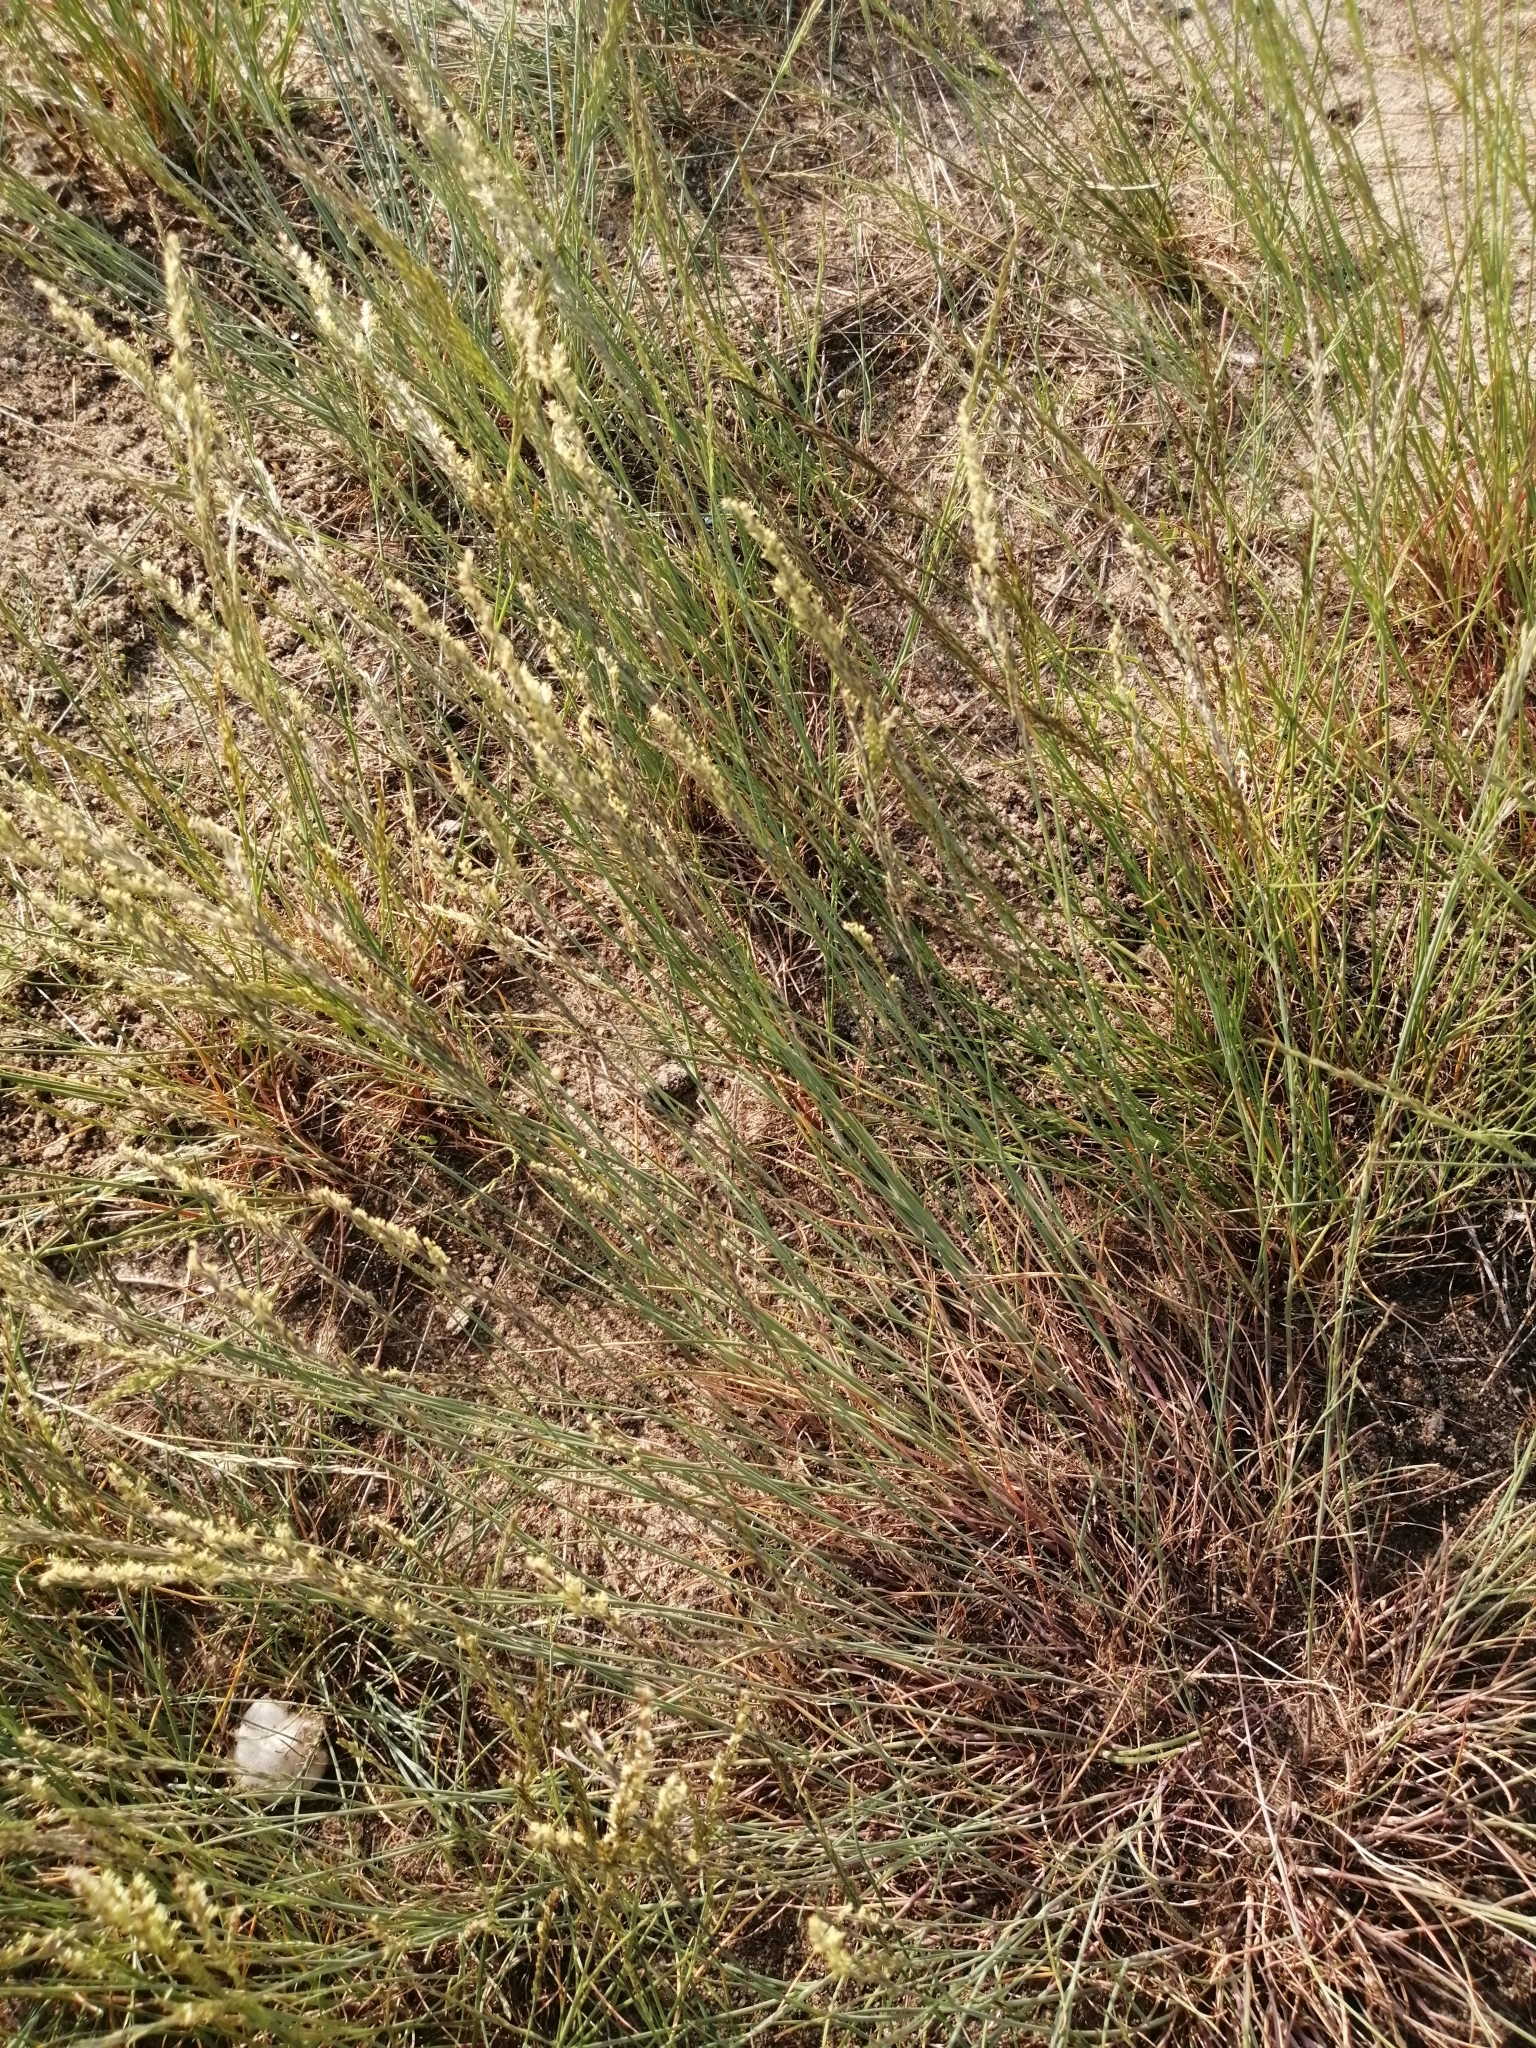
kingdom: Plantae
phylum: Tracheophyta
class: Liliopsida
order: Poales
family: Poaceae
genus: Poa
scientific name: Poa versicolor
